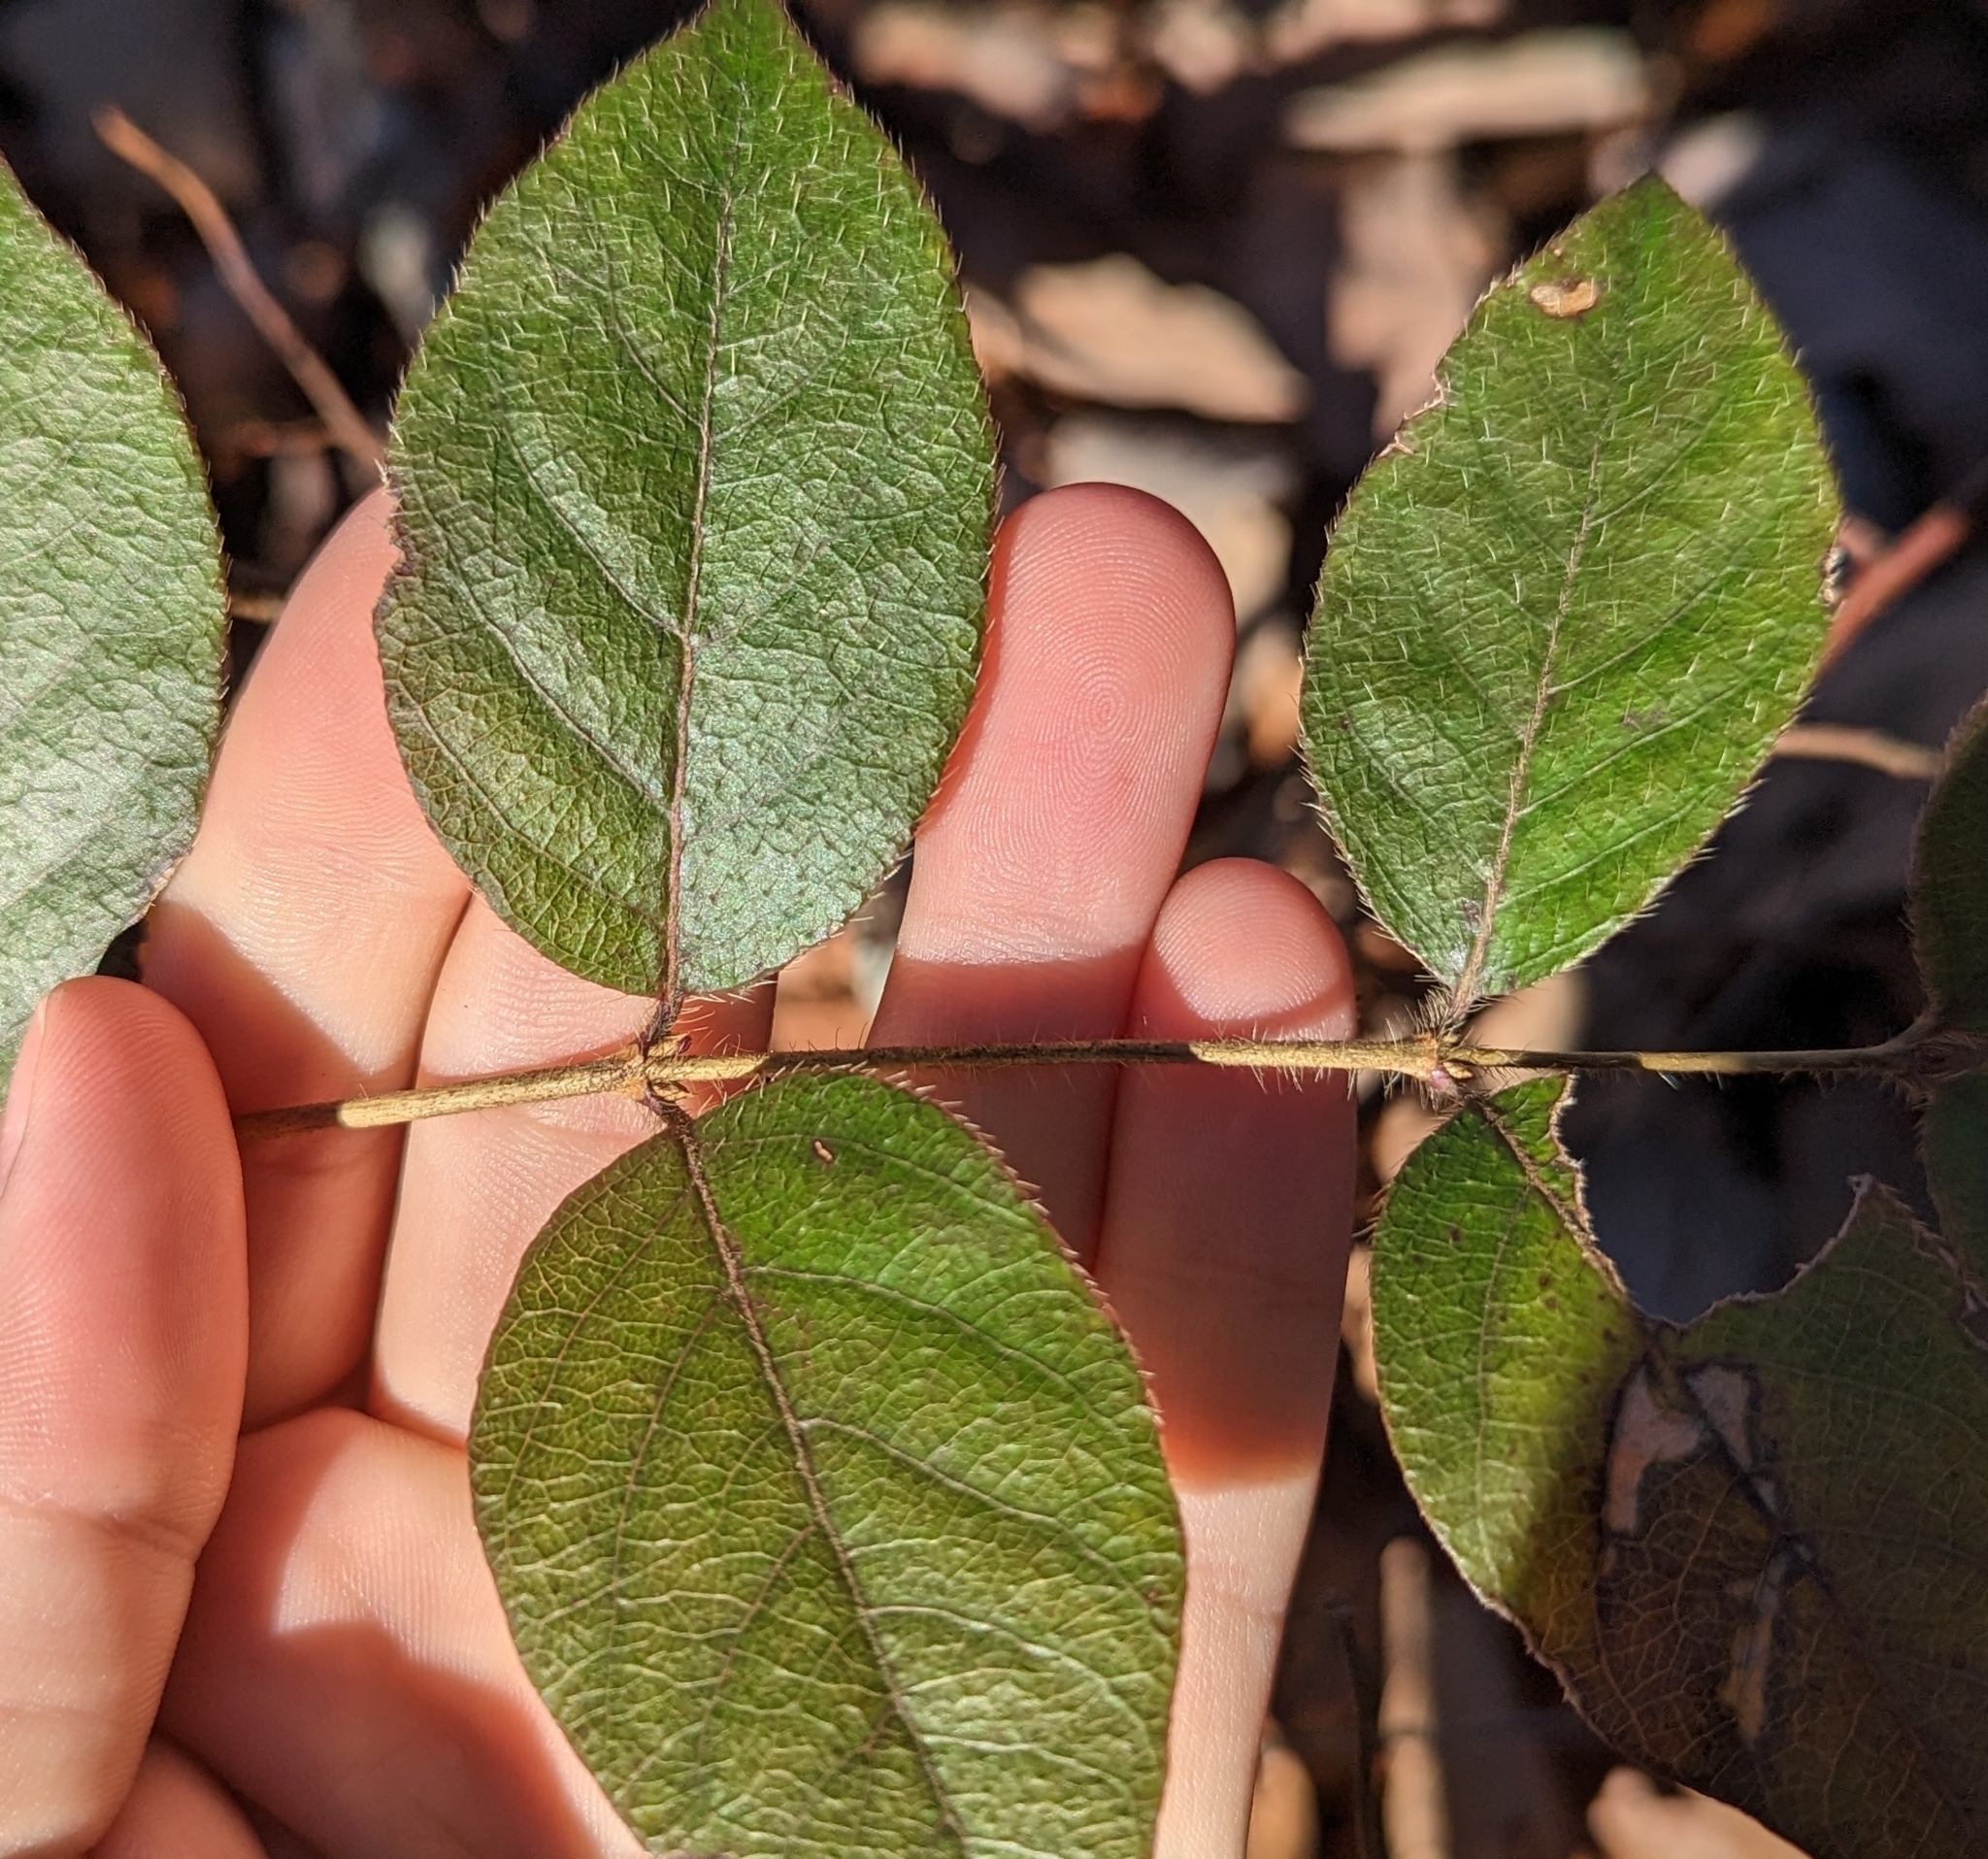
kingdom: Plantae
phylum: Tracheophyta
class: Magnoliopsida
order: Dipsacales
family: Caprifoliaceae
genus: Lonicera
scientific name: Lonicera fragrantissima
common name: Fragrant honeysuckle
